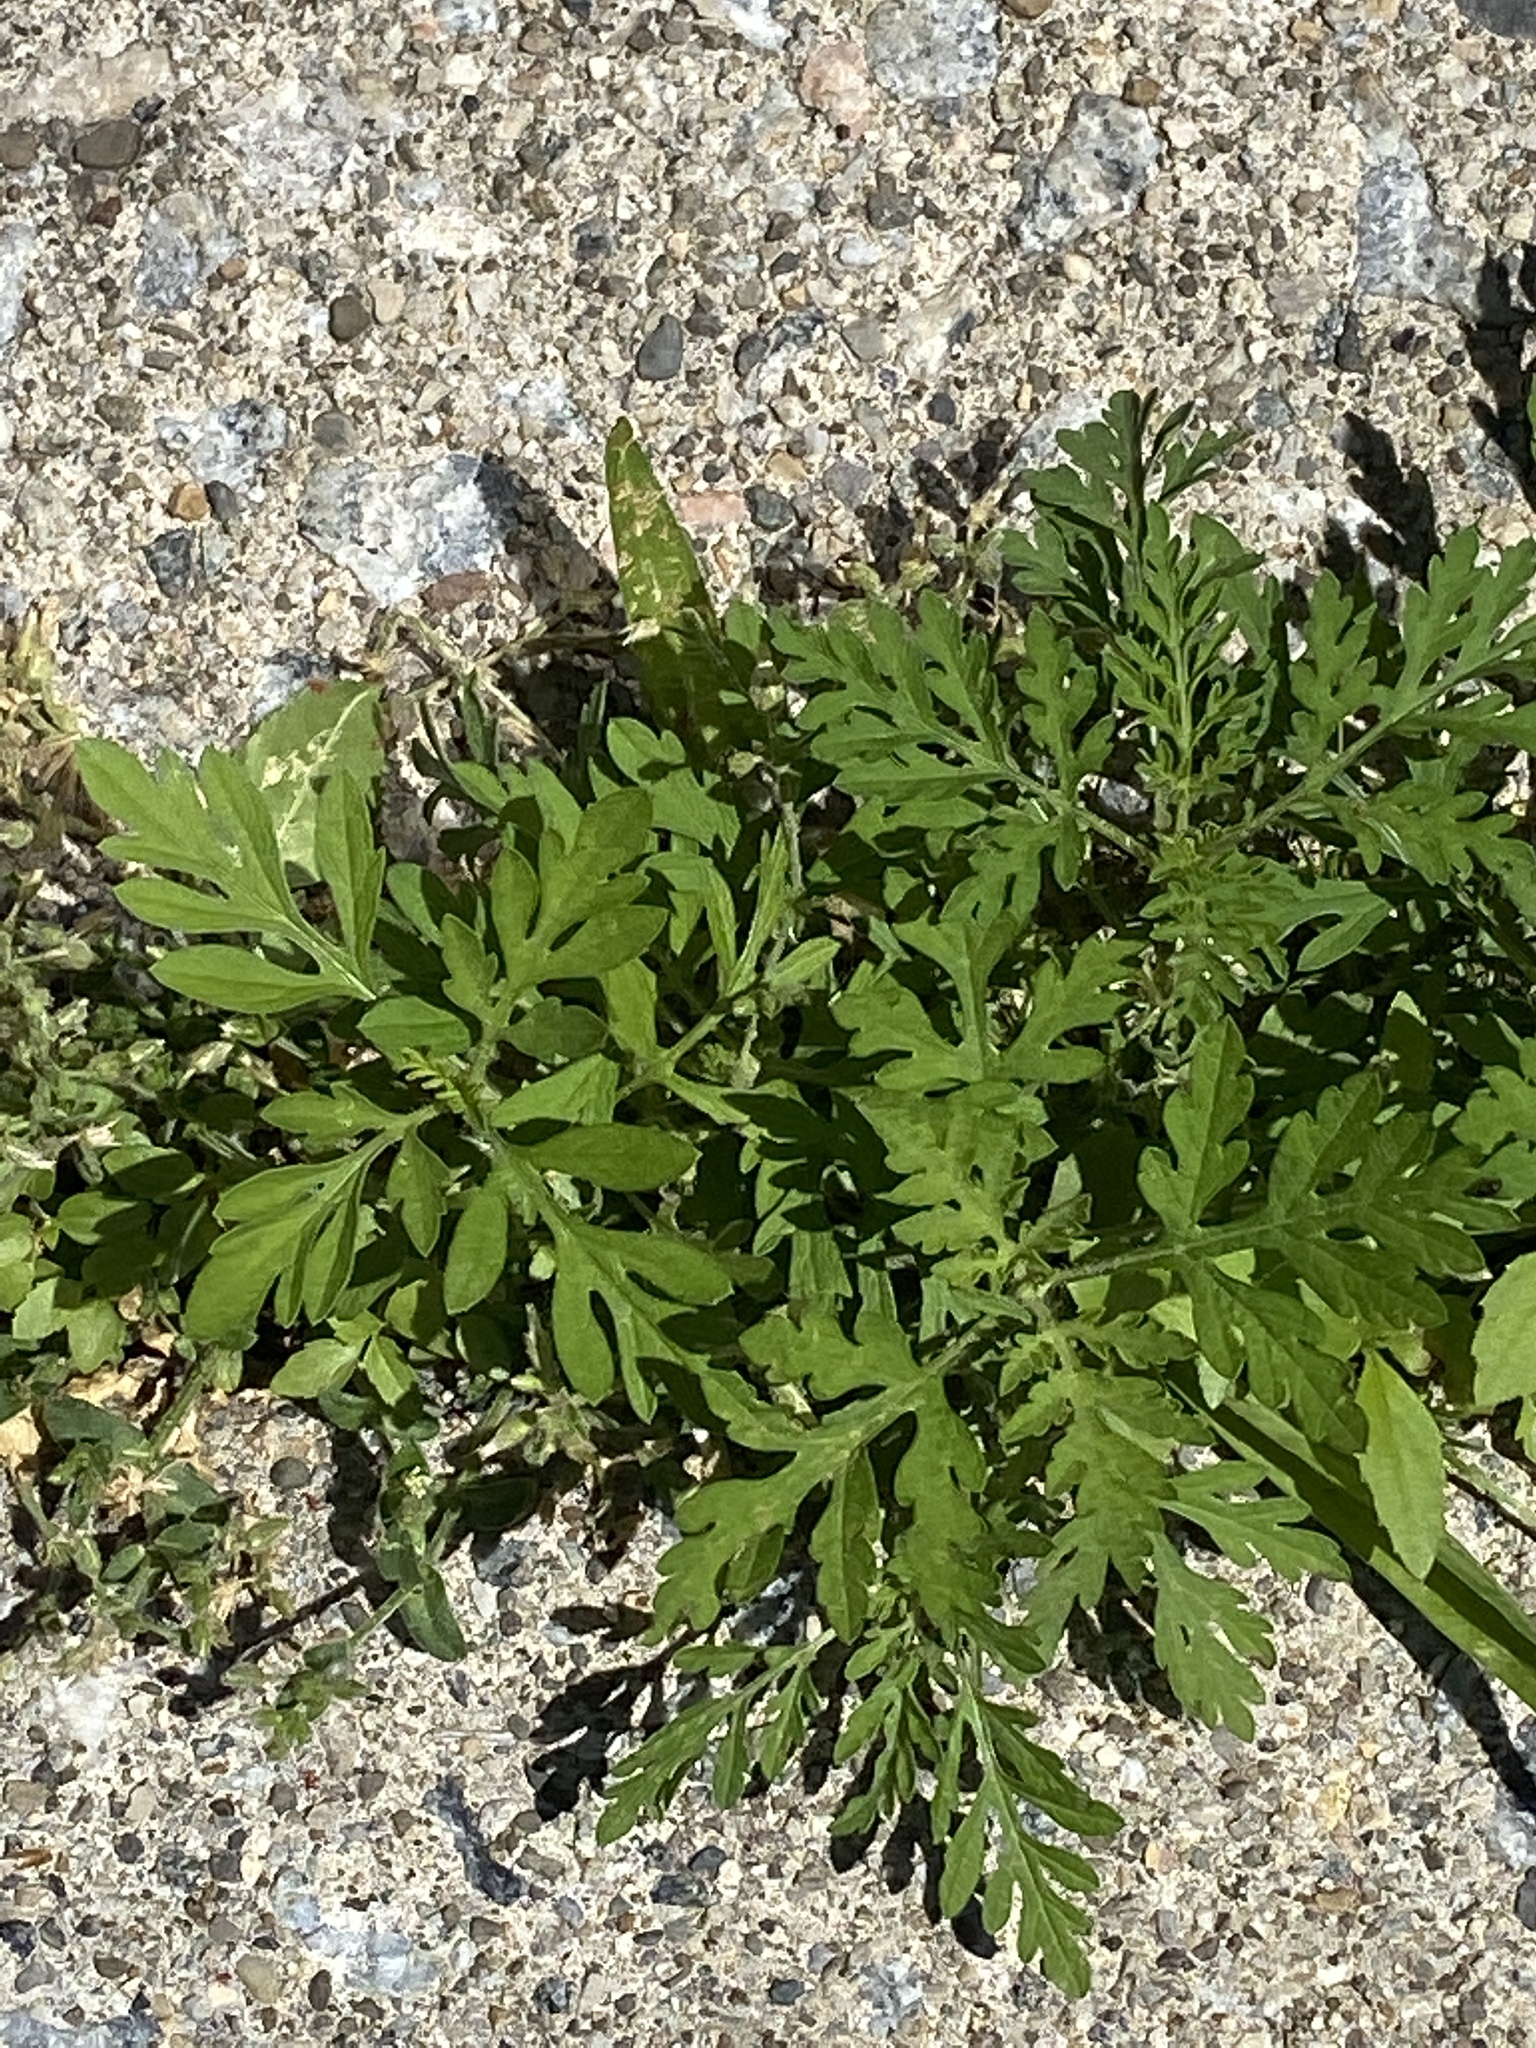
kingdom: Plantae
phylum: Tracheophyta
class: Magnoliopsida
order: Asterales
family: Asteraceae
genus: Ambrosia
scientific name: Ambrosia artemisiifolia
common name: Annual ragweed
